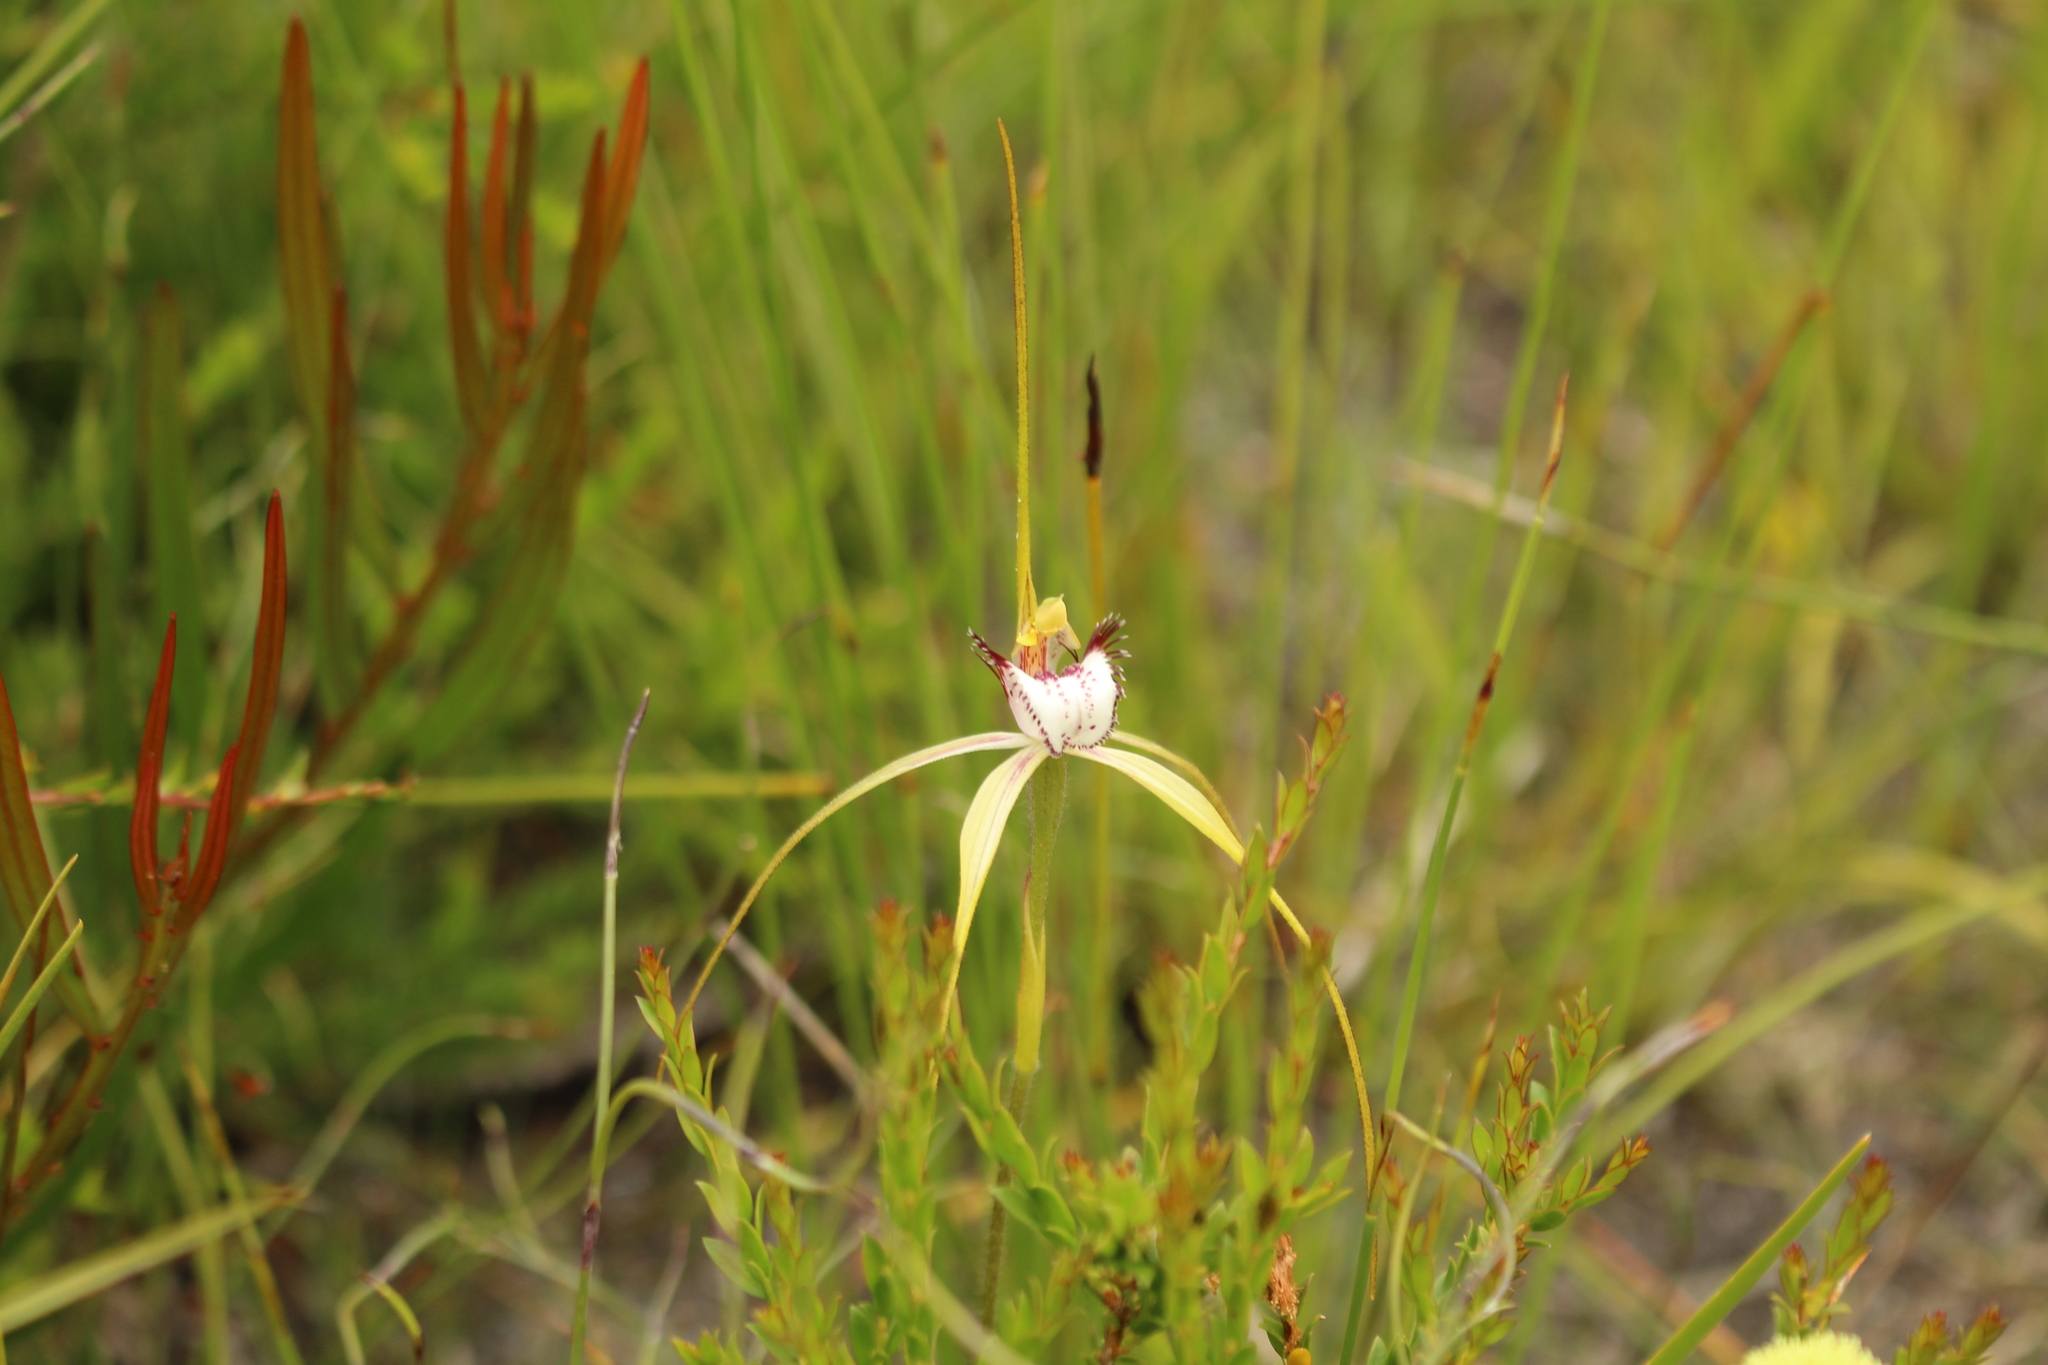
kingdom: Plantae
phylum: Tracheophyta
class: Liliopsida
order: Asparagales
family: Orchidaceae
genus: Caladenia
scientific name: Caladenia serotina
